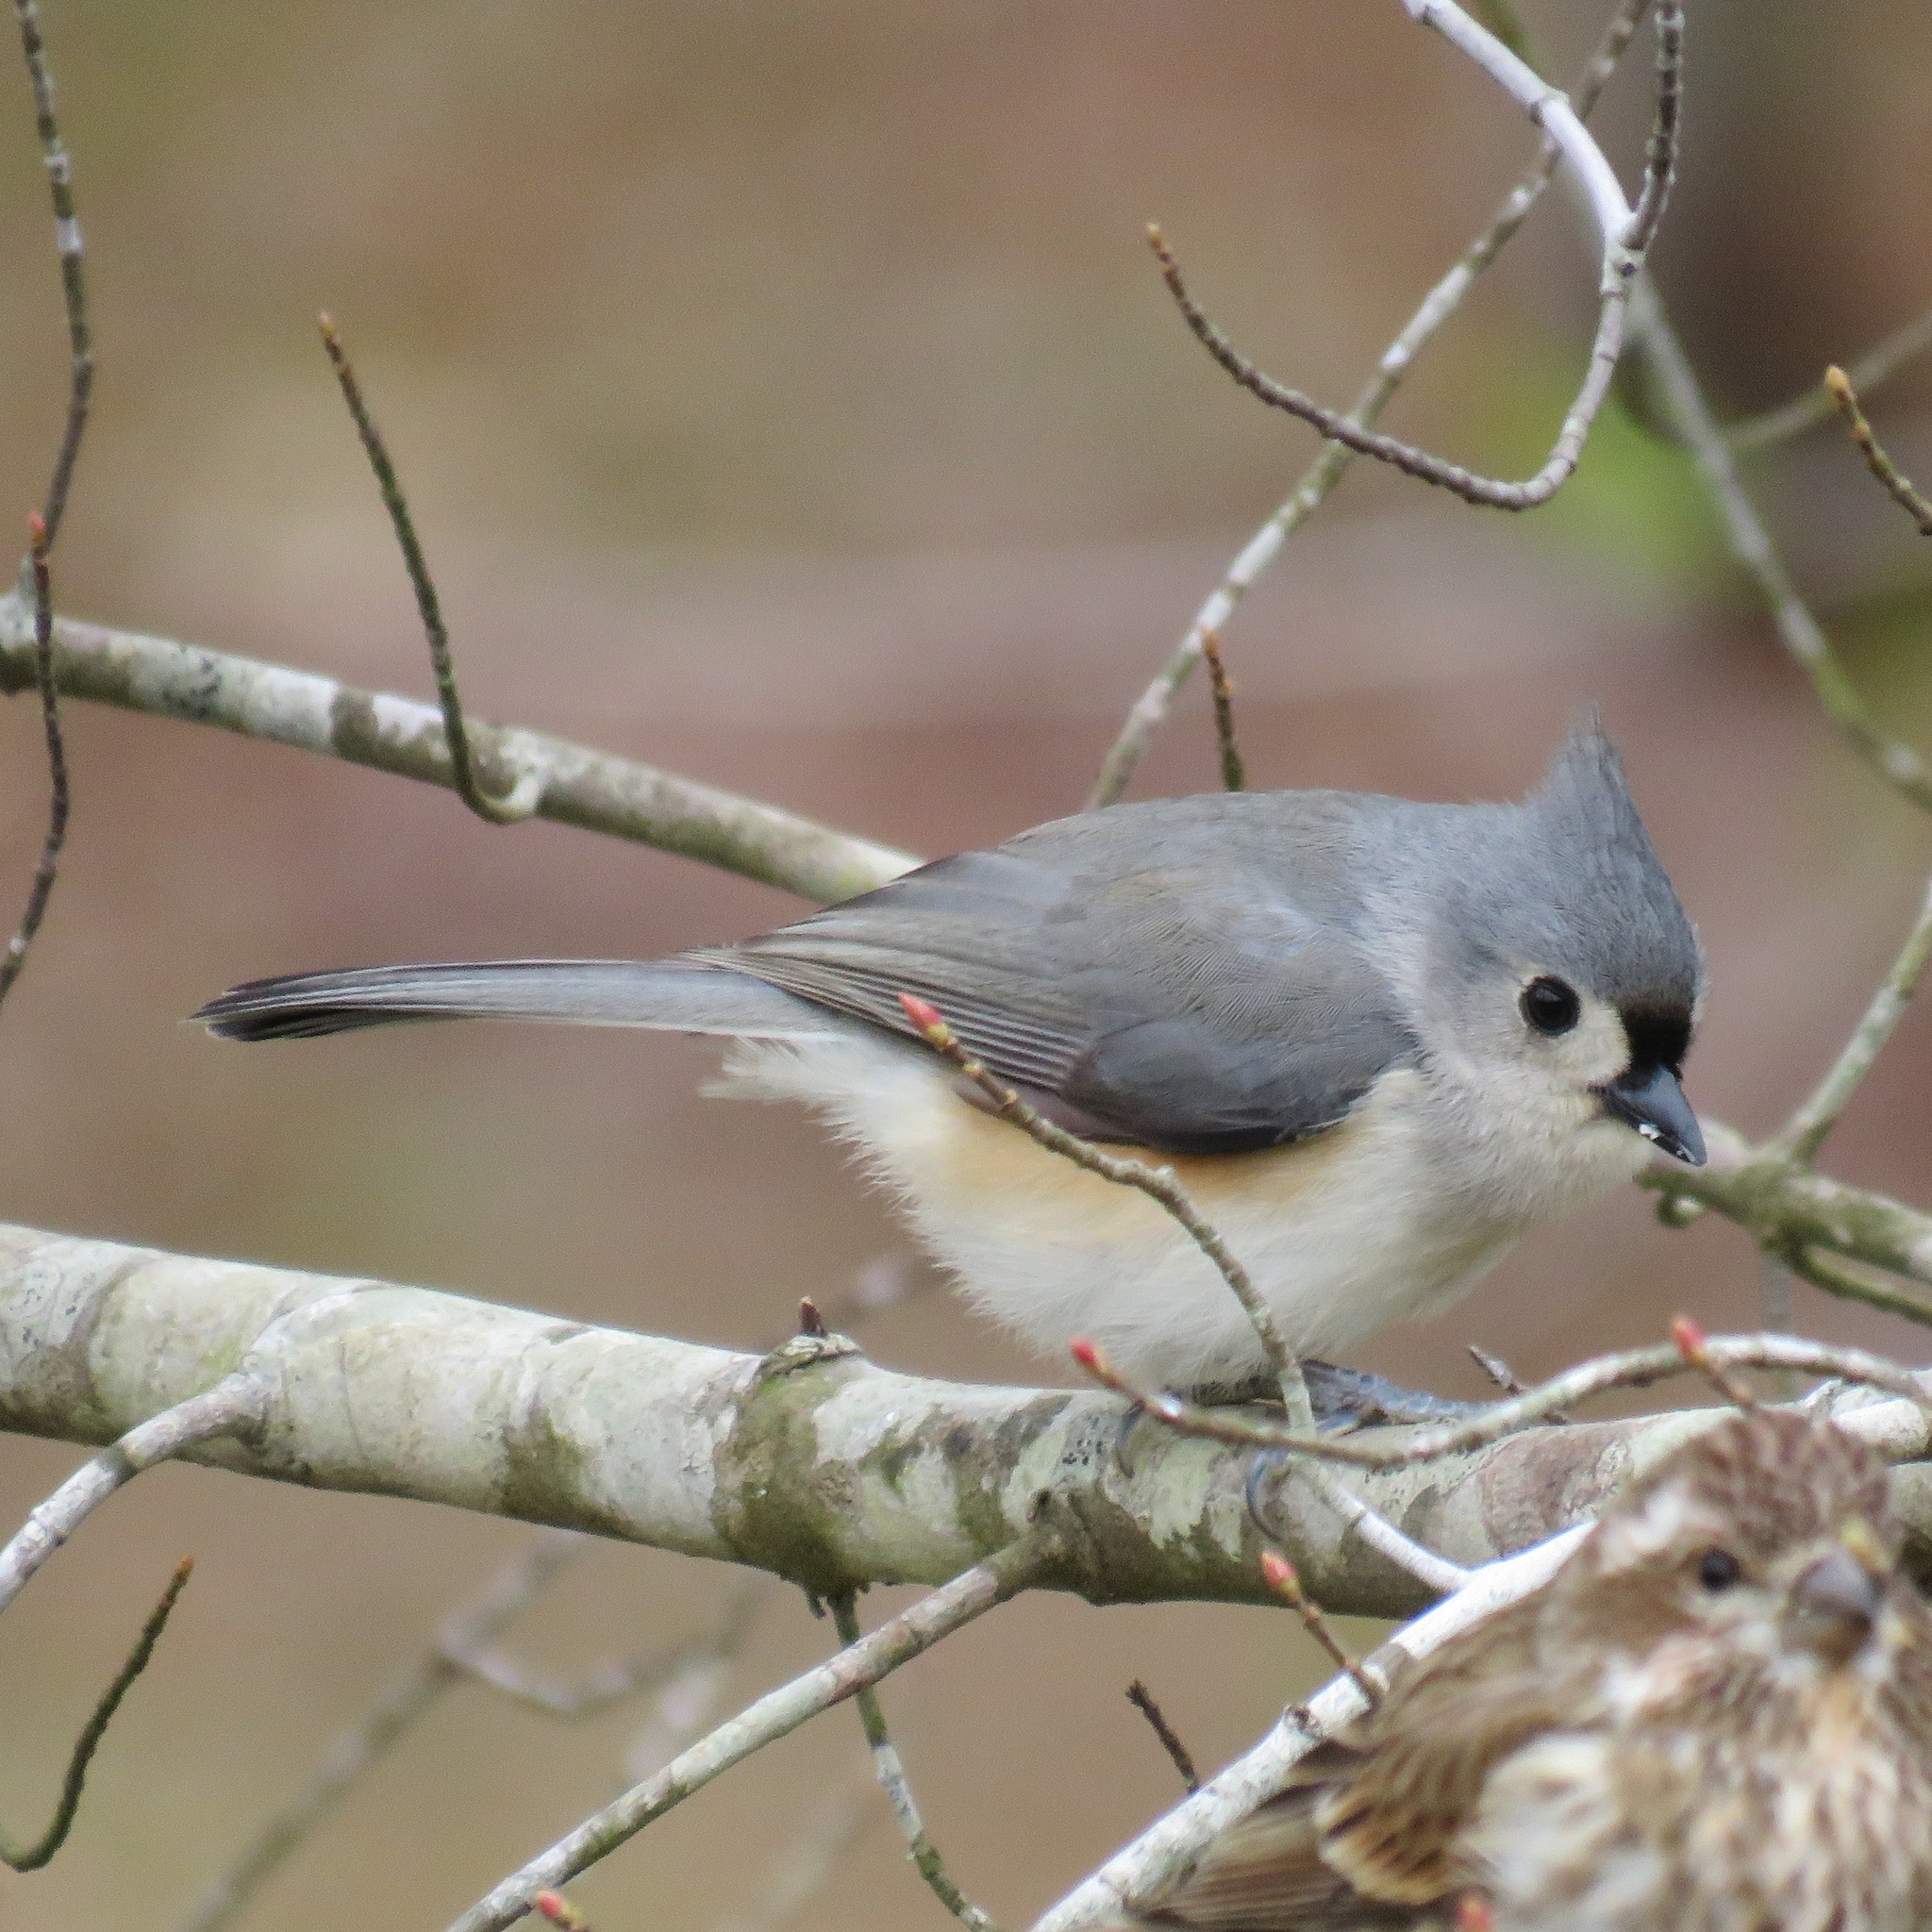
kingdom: Animalia
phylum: Chordata
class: Aves
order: Passeriformes
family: Paridae
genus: Baeolophus
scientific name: Baeolophus bicolor
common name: Tufted titmouse
